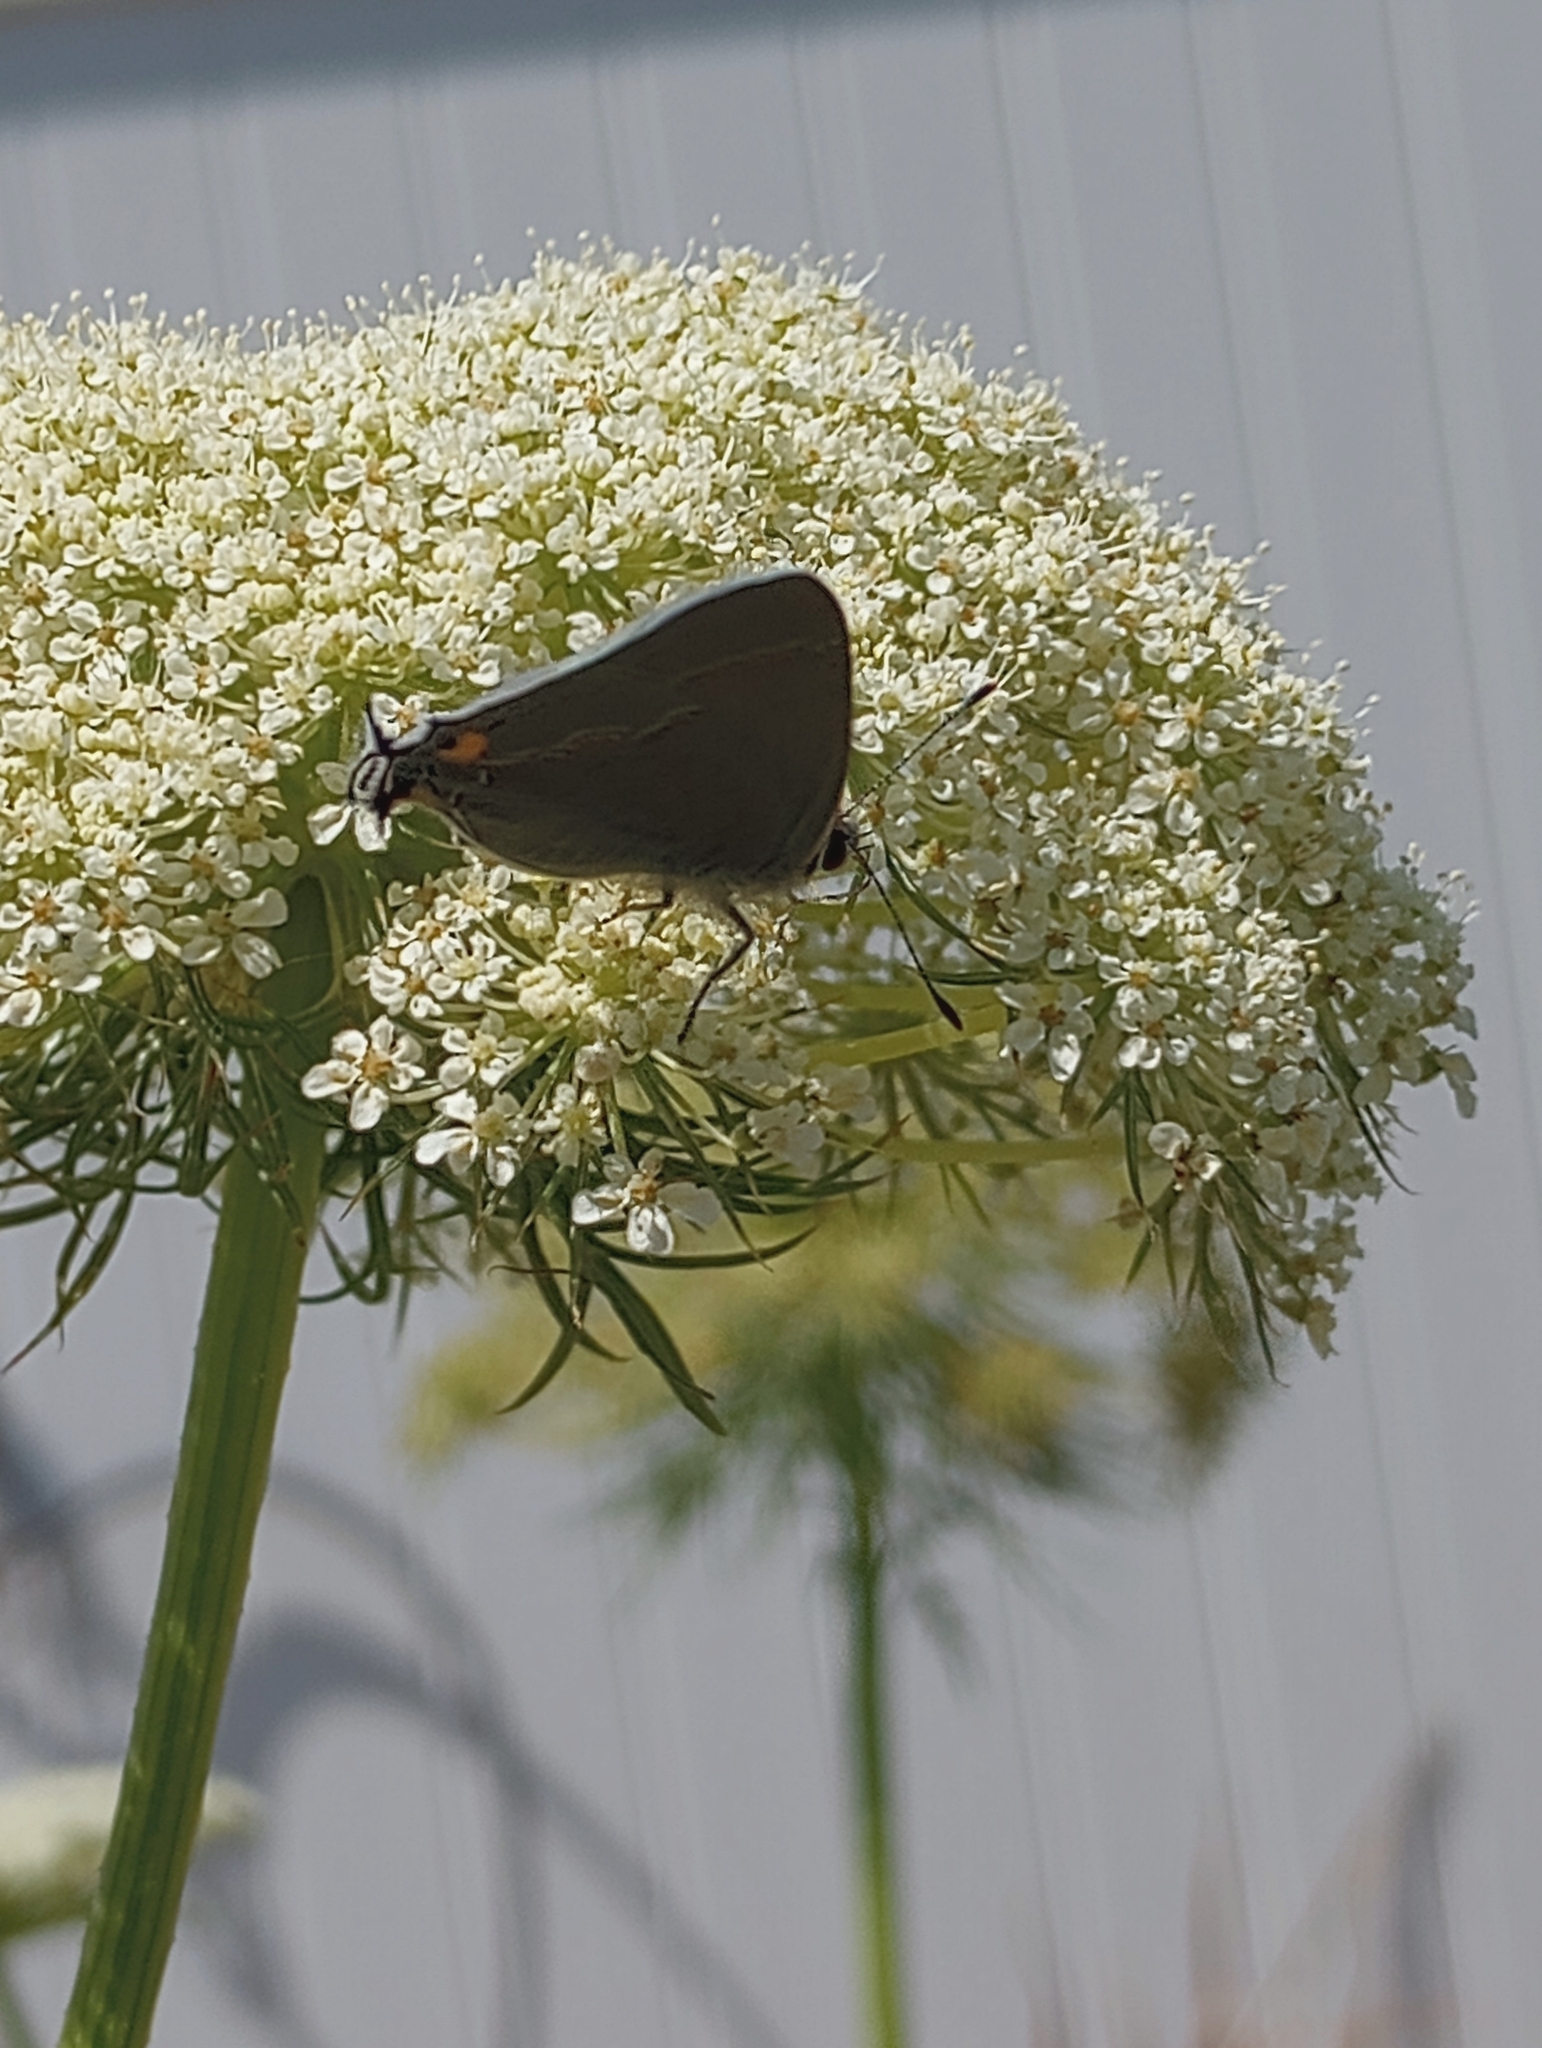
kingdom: Animalia
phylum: Arthropoda
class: Insecta
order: Lepidoptera
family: Lycaenidae
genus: Strymon
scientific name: Strymon melinus
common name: Gray hairstreak
